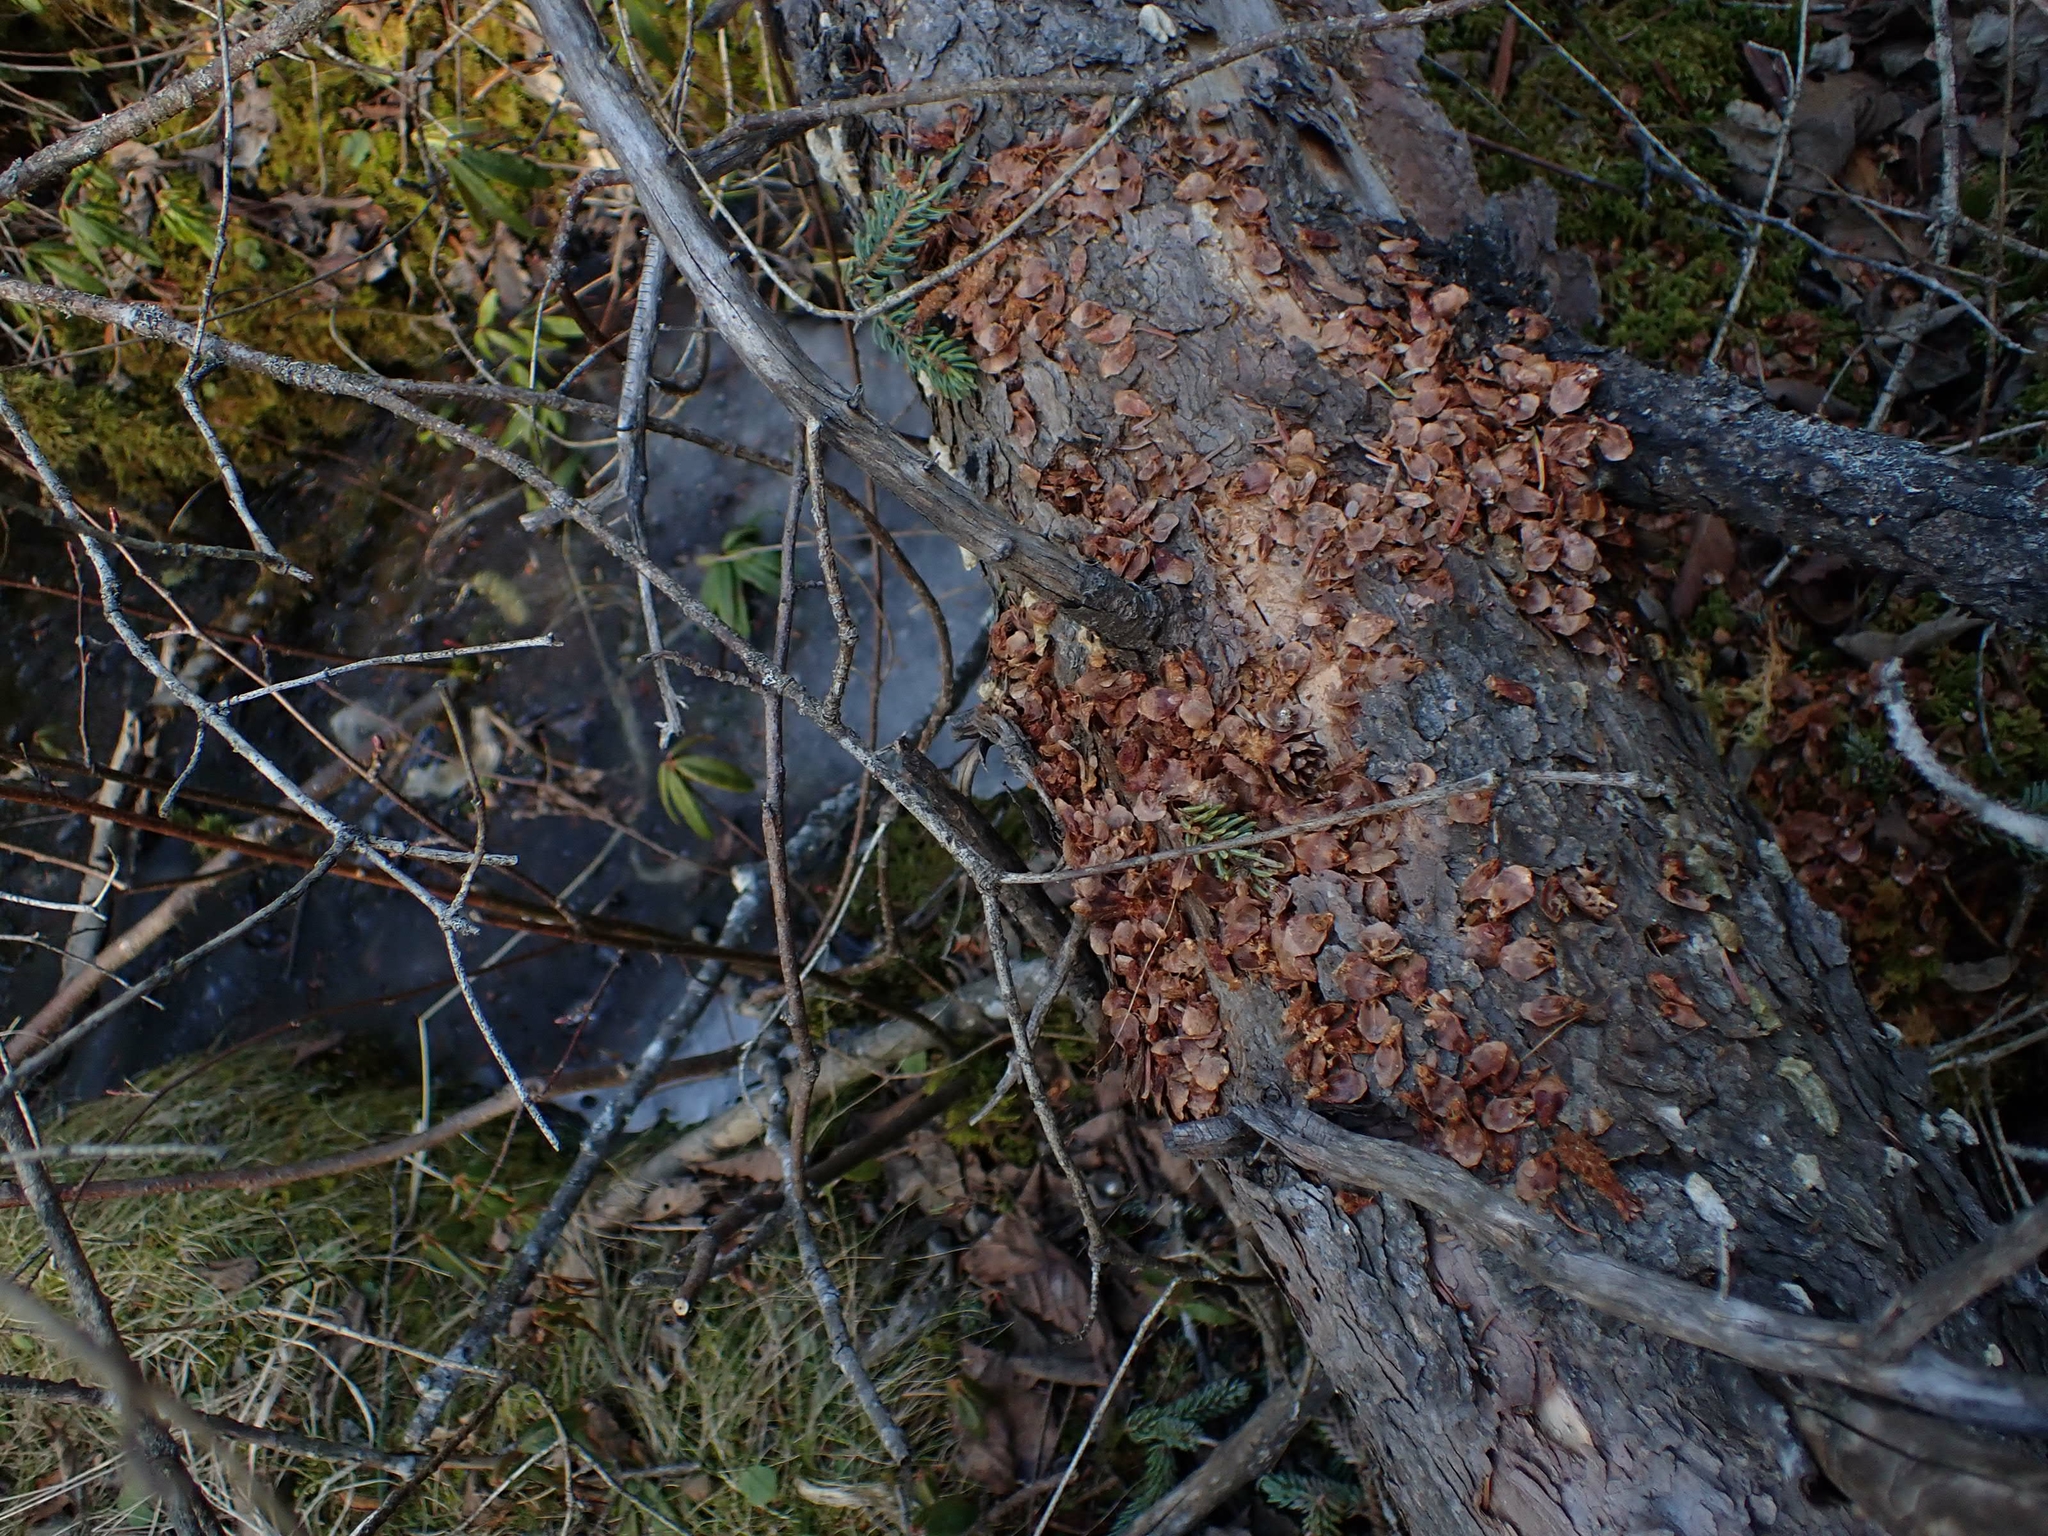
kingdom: Animalia
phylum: Chordata
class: Mammalia
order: Rodentia
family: Sciuridae
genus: Tamiasciurus
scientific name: Tamiasciurus hudsonicus
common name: Red squirrel
